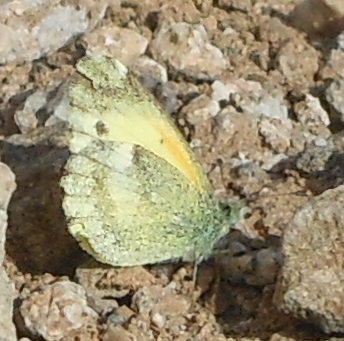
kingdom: Animalia
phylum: Arthropoda
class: Insecta
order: Lepidoptera
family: Pieridae
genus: Nathalis
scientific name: Nathalis iole
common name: Dainty sulphur
